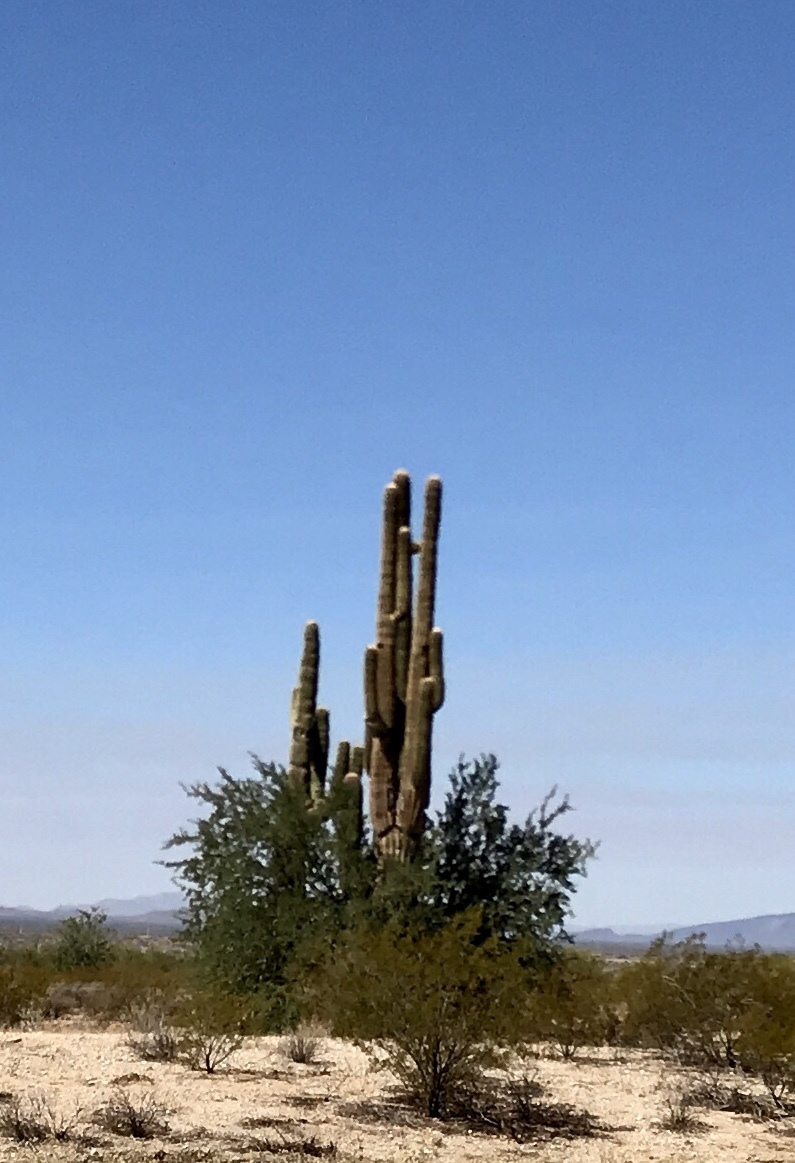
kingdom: Plantae
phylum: Tracheophyta
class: Magnoliopsida
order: Caryophyllales
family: Cactaceae
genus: Carnegiea
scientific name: Carnegiea gigantea
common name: Saguaro
